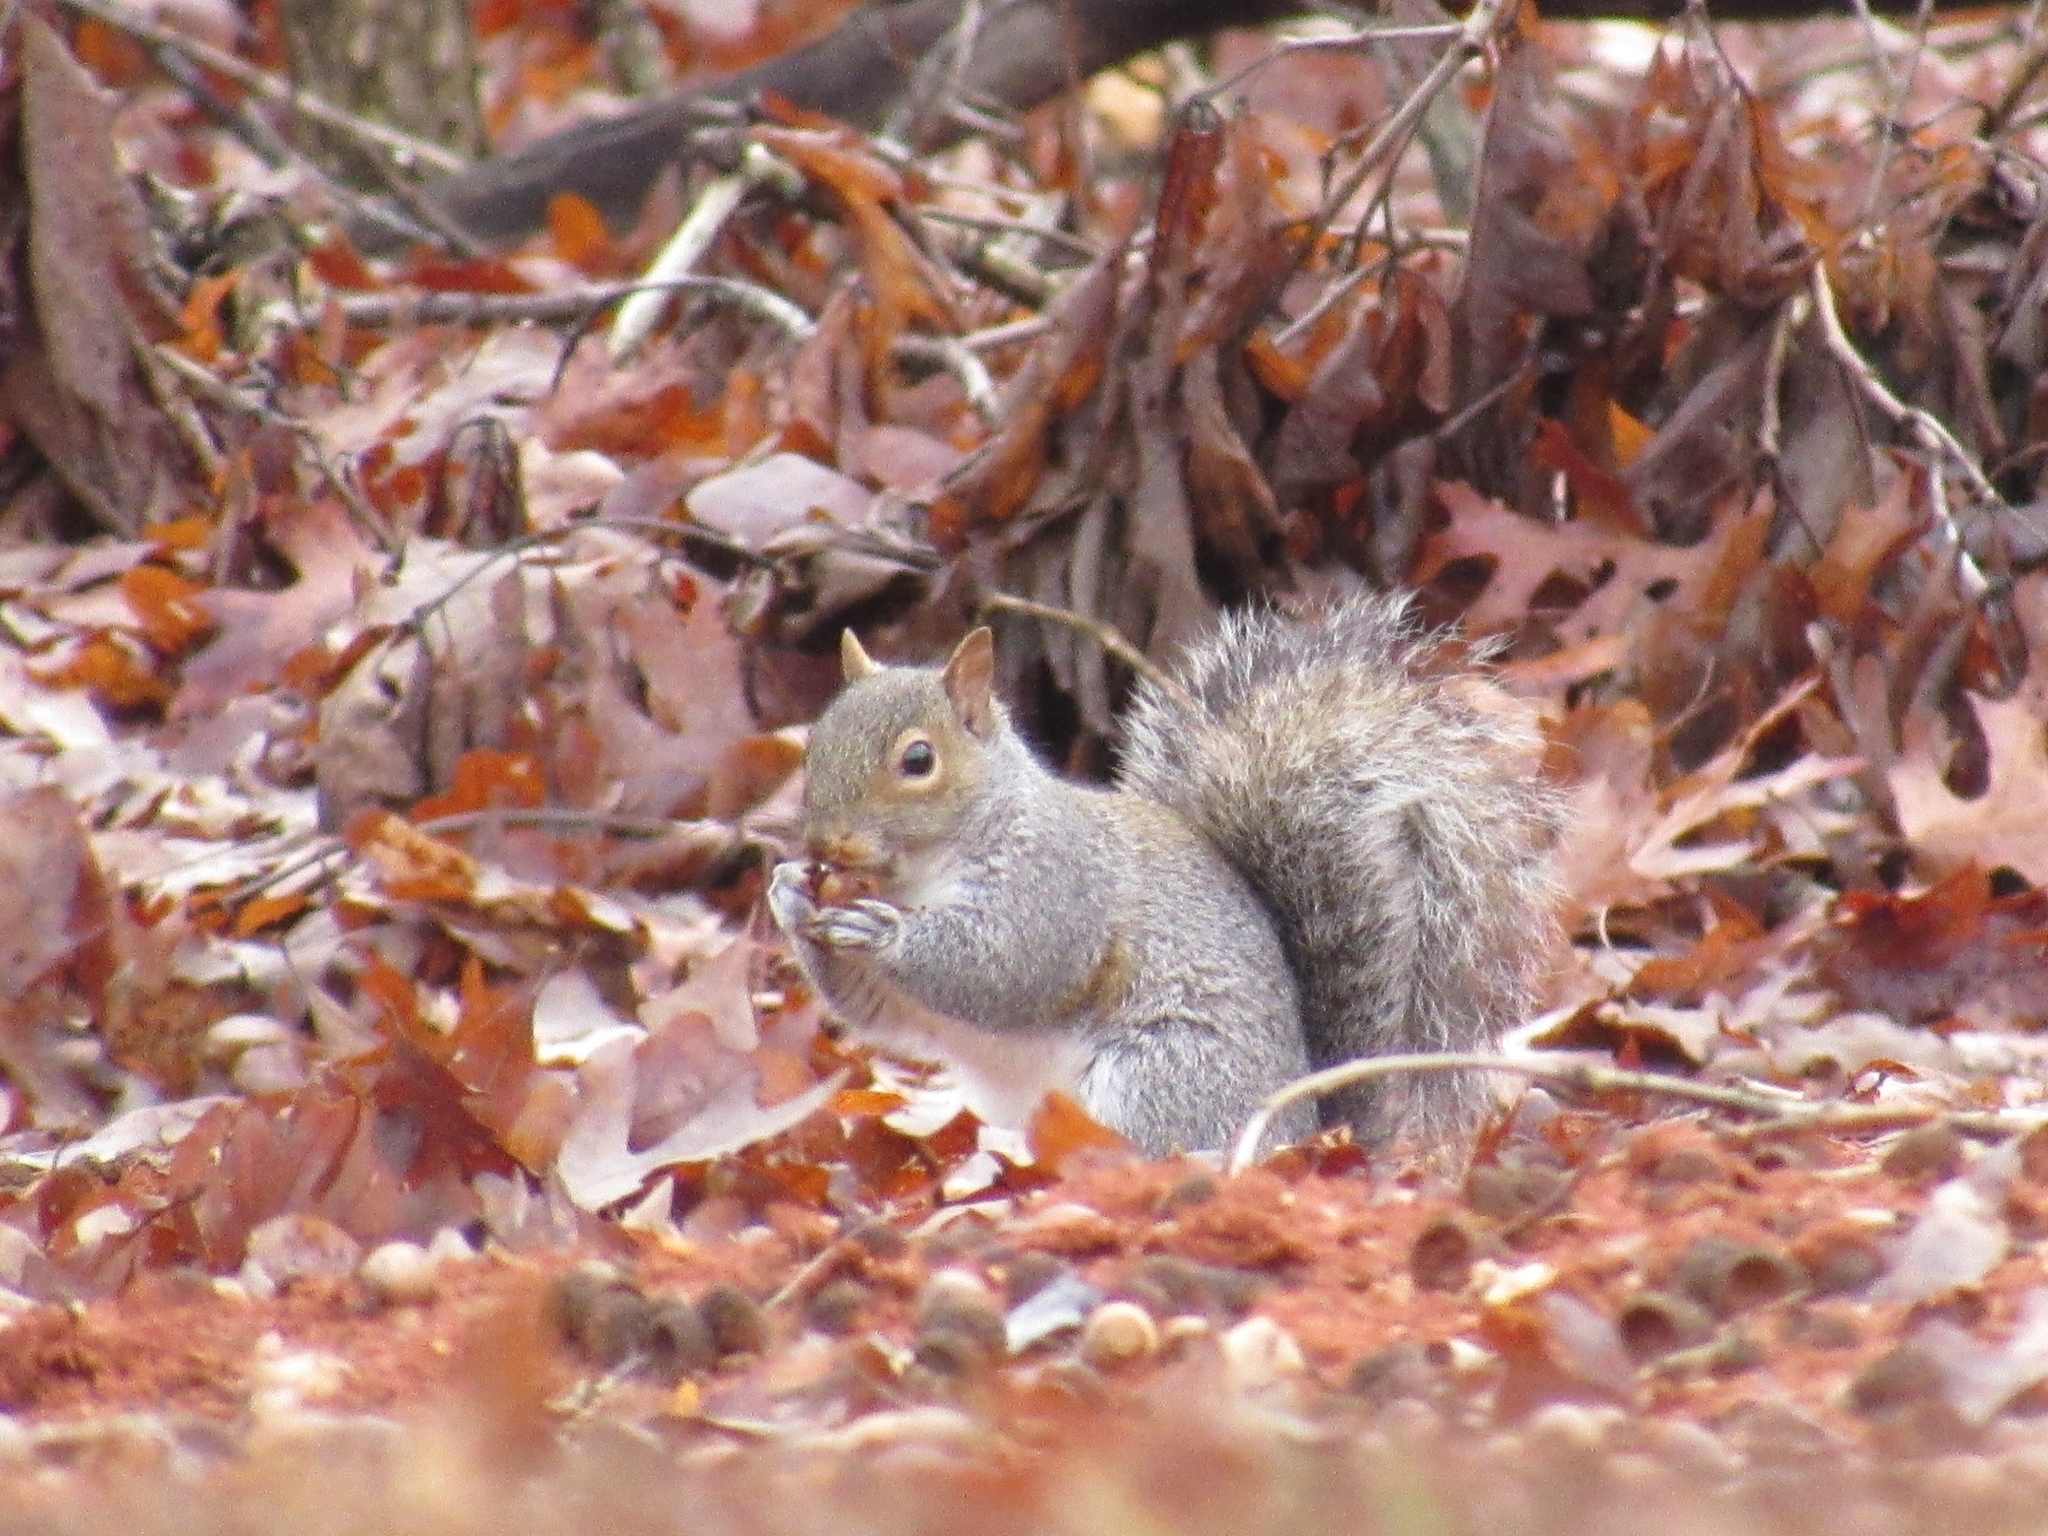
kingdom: Animalia
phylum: Chordata
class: Mammalia
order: Rodentia
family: Sciuridae
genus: Sciurus
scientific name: Sciurus carolinensis
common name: Eastern gray squirrel
